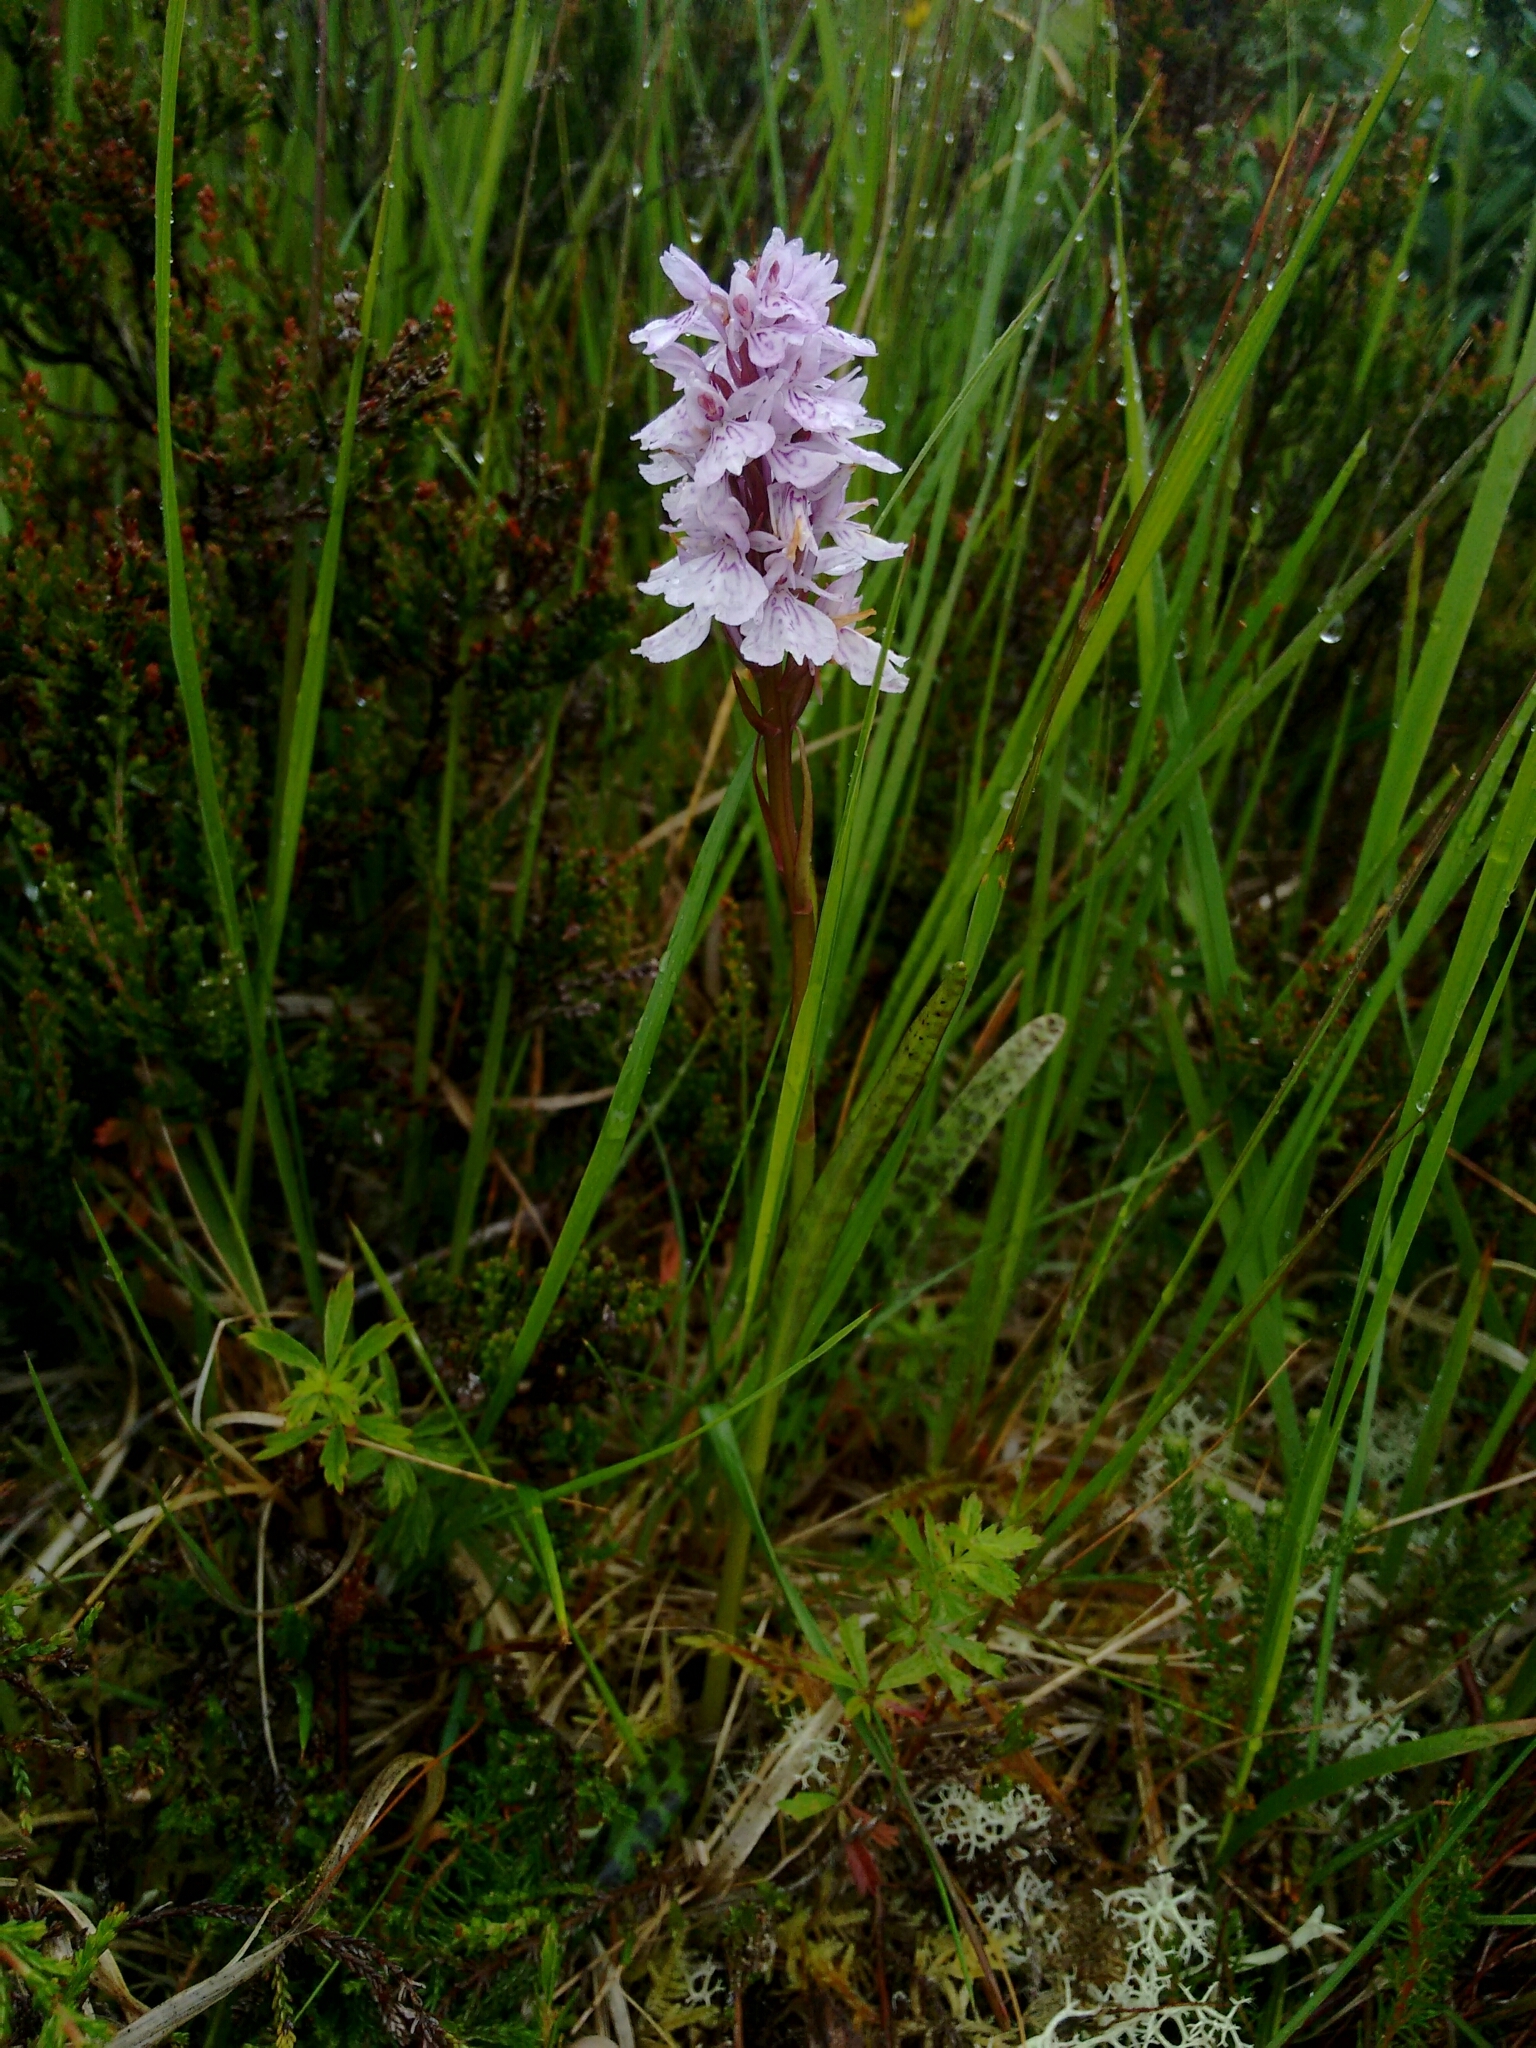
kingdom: Plantae
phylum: Tracheophyta
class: Liliopsida
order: Asparagales
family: Orchidaceae
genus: Dactylorhiza
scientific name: Dactylorhiza maculata
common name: Heath spotted-orchid
